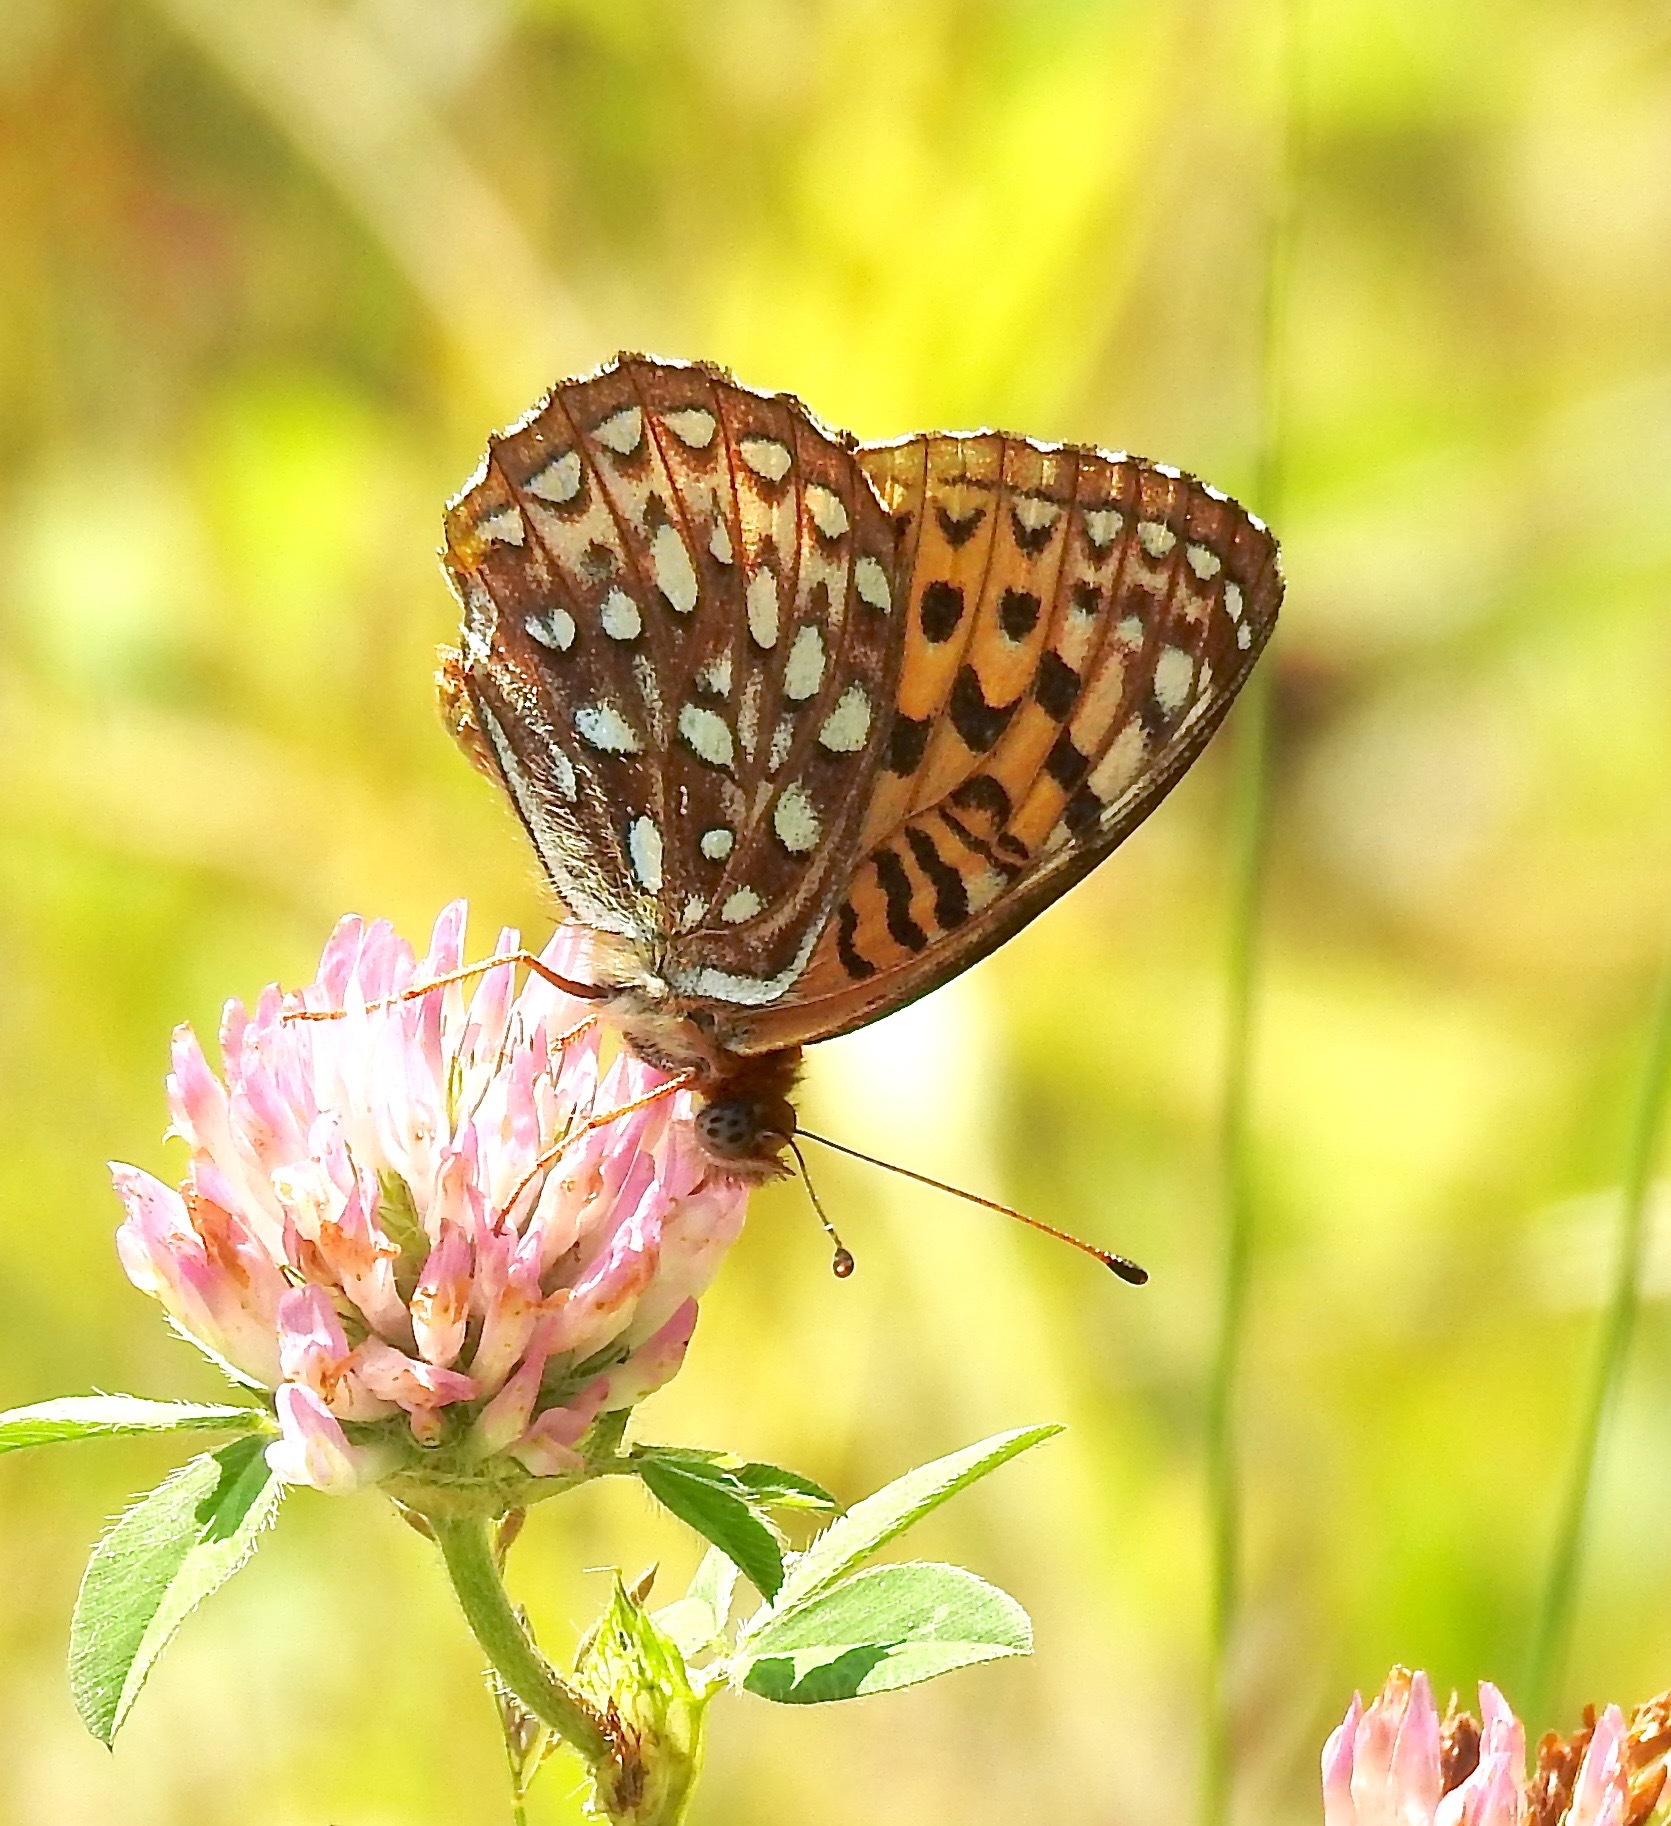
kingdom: Animalia
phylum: Arthropoda
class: Insecta
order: Lepidoptera
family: Nymphalidae
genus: Speyeria
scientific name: Speyeria atlantis
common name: Atlantis fritillary
